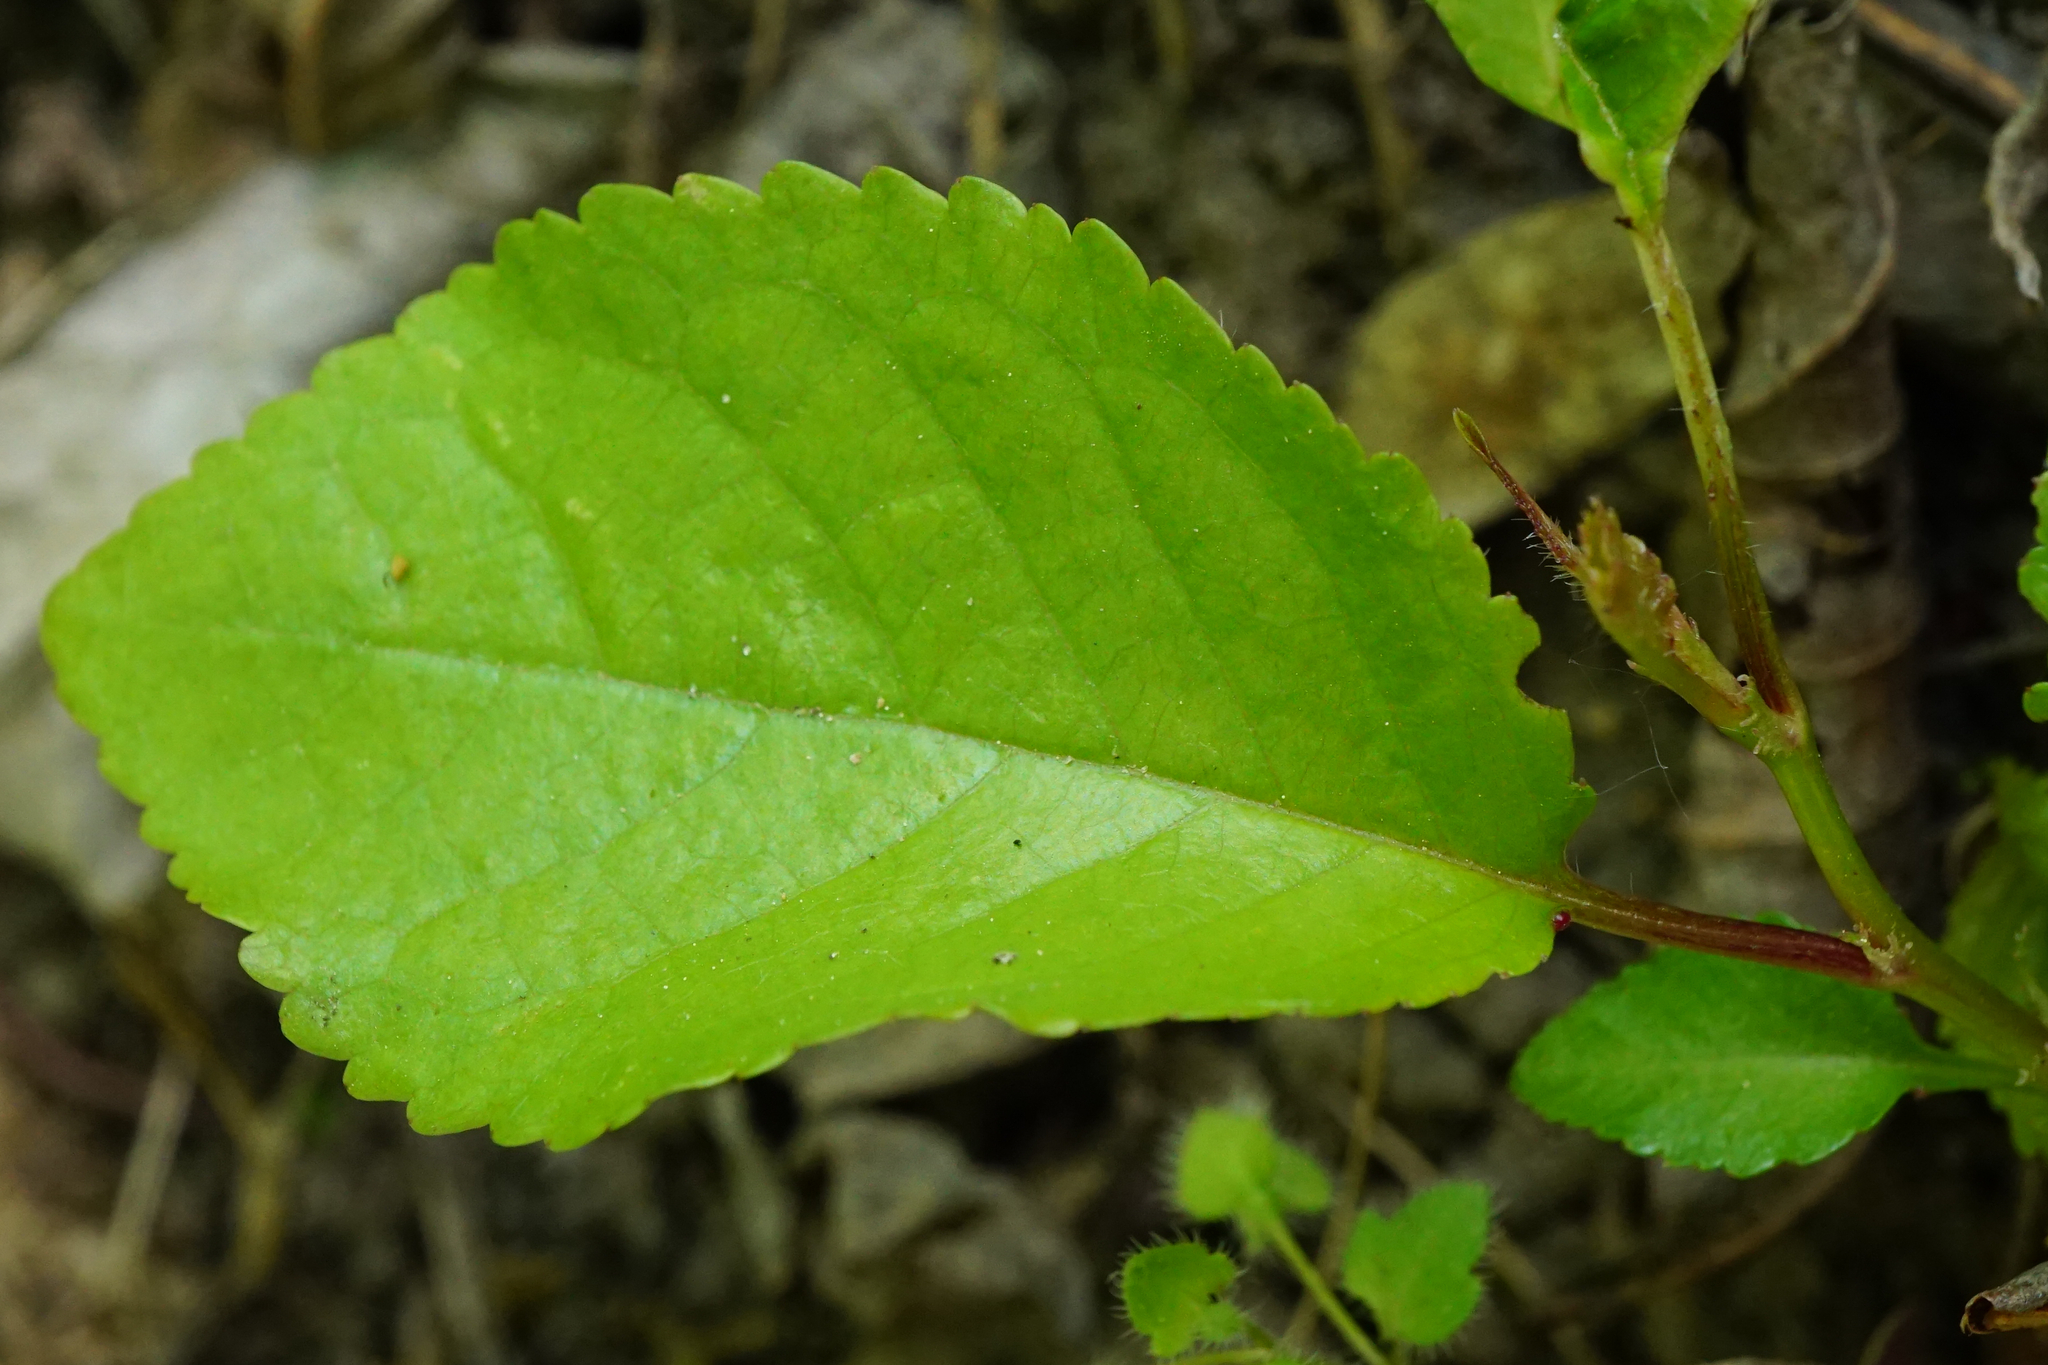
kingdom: Plantae
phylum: Tracheophyta
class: Magnoliopsida
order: Rosales
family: Rosaceae
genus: Prunus
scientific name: Prunus avium
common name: Sweet cherry
